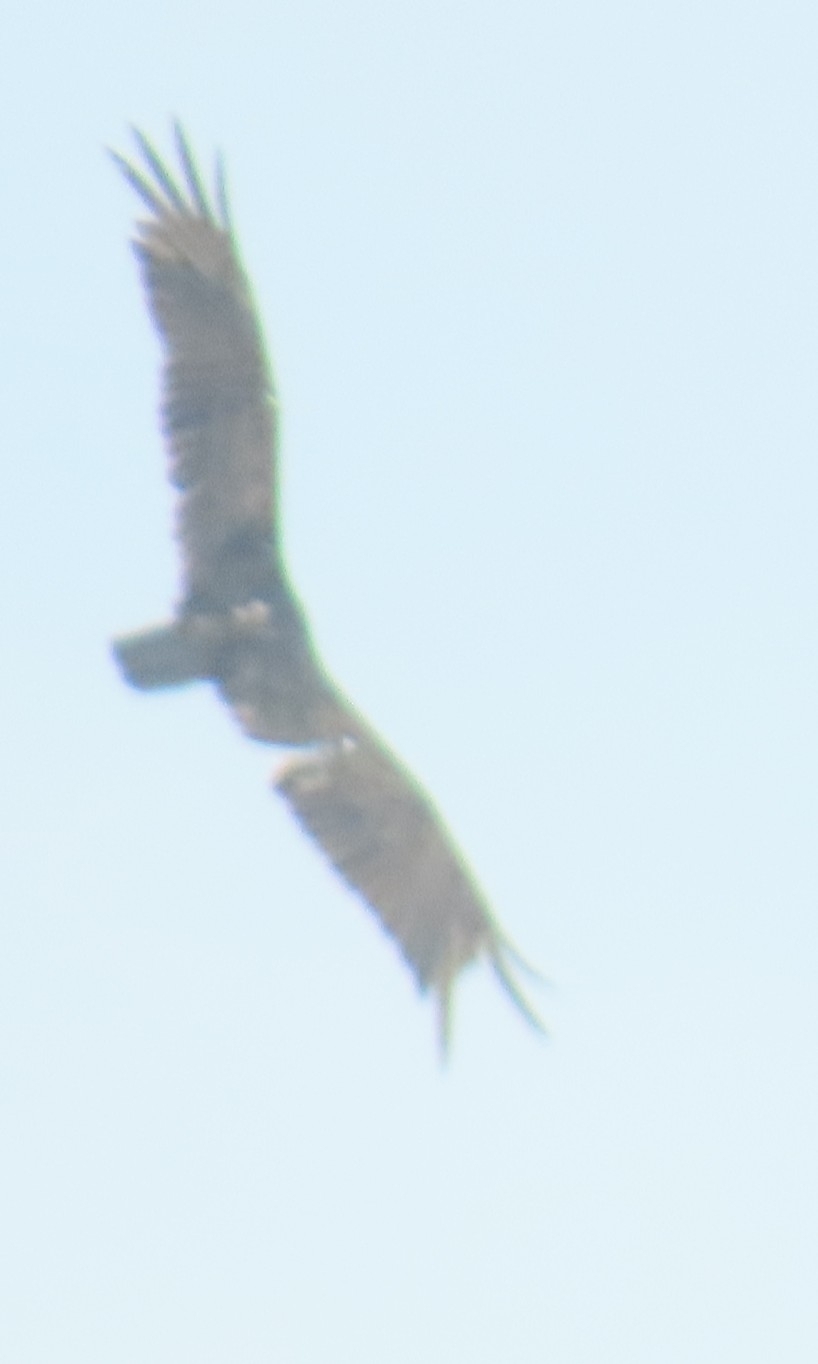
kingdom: Animalia
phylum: Chordata
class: Aves
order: Accipitriformes
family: Cathartidae
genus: Cathartes
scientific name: Cathartes aura
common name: Turkey vulture
